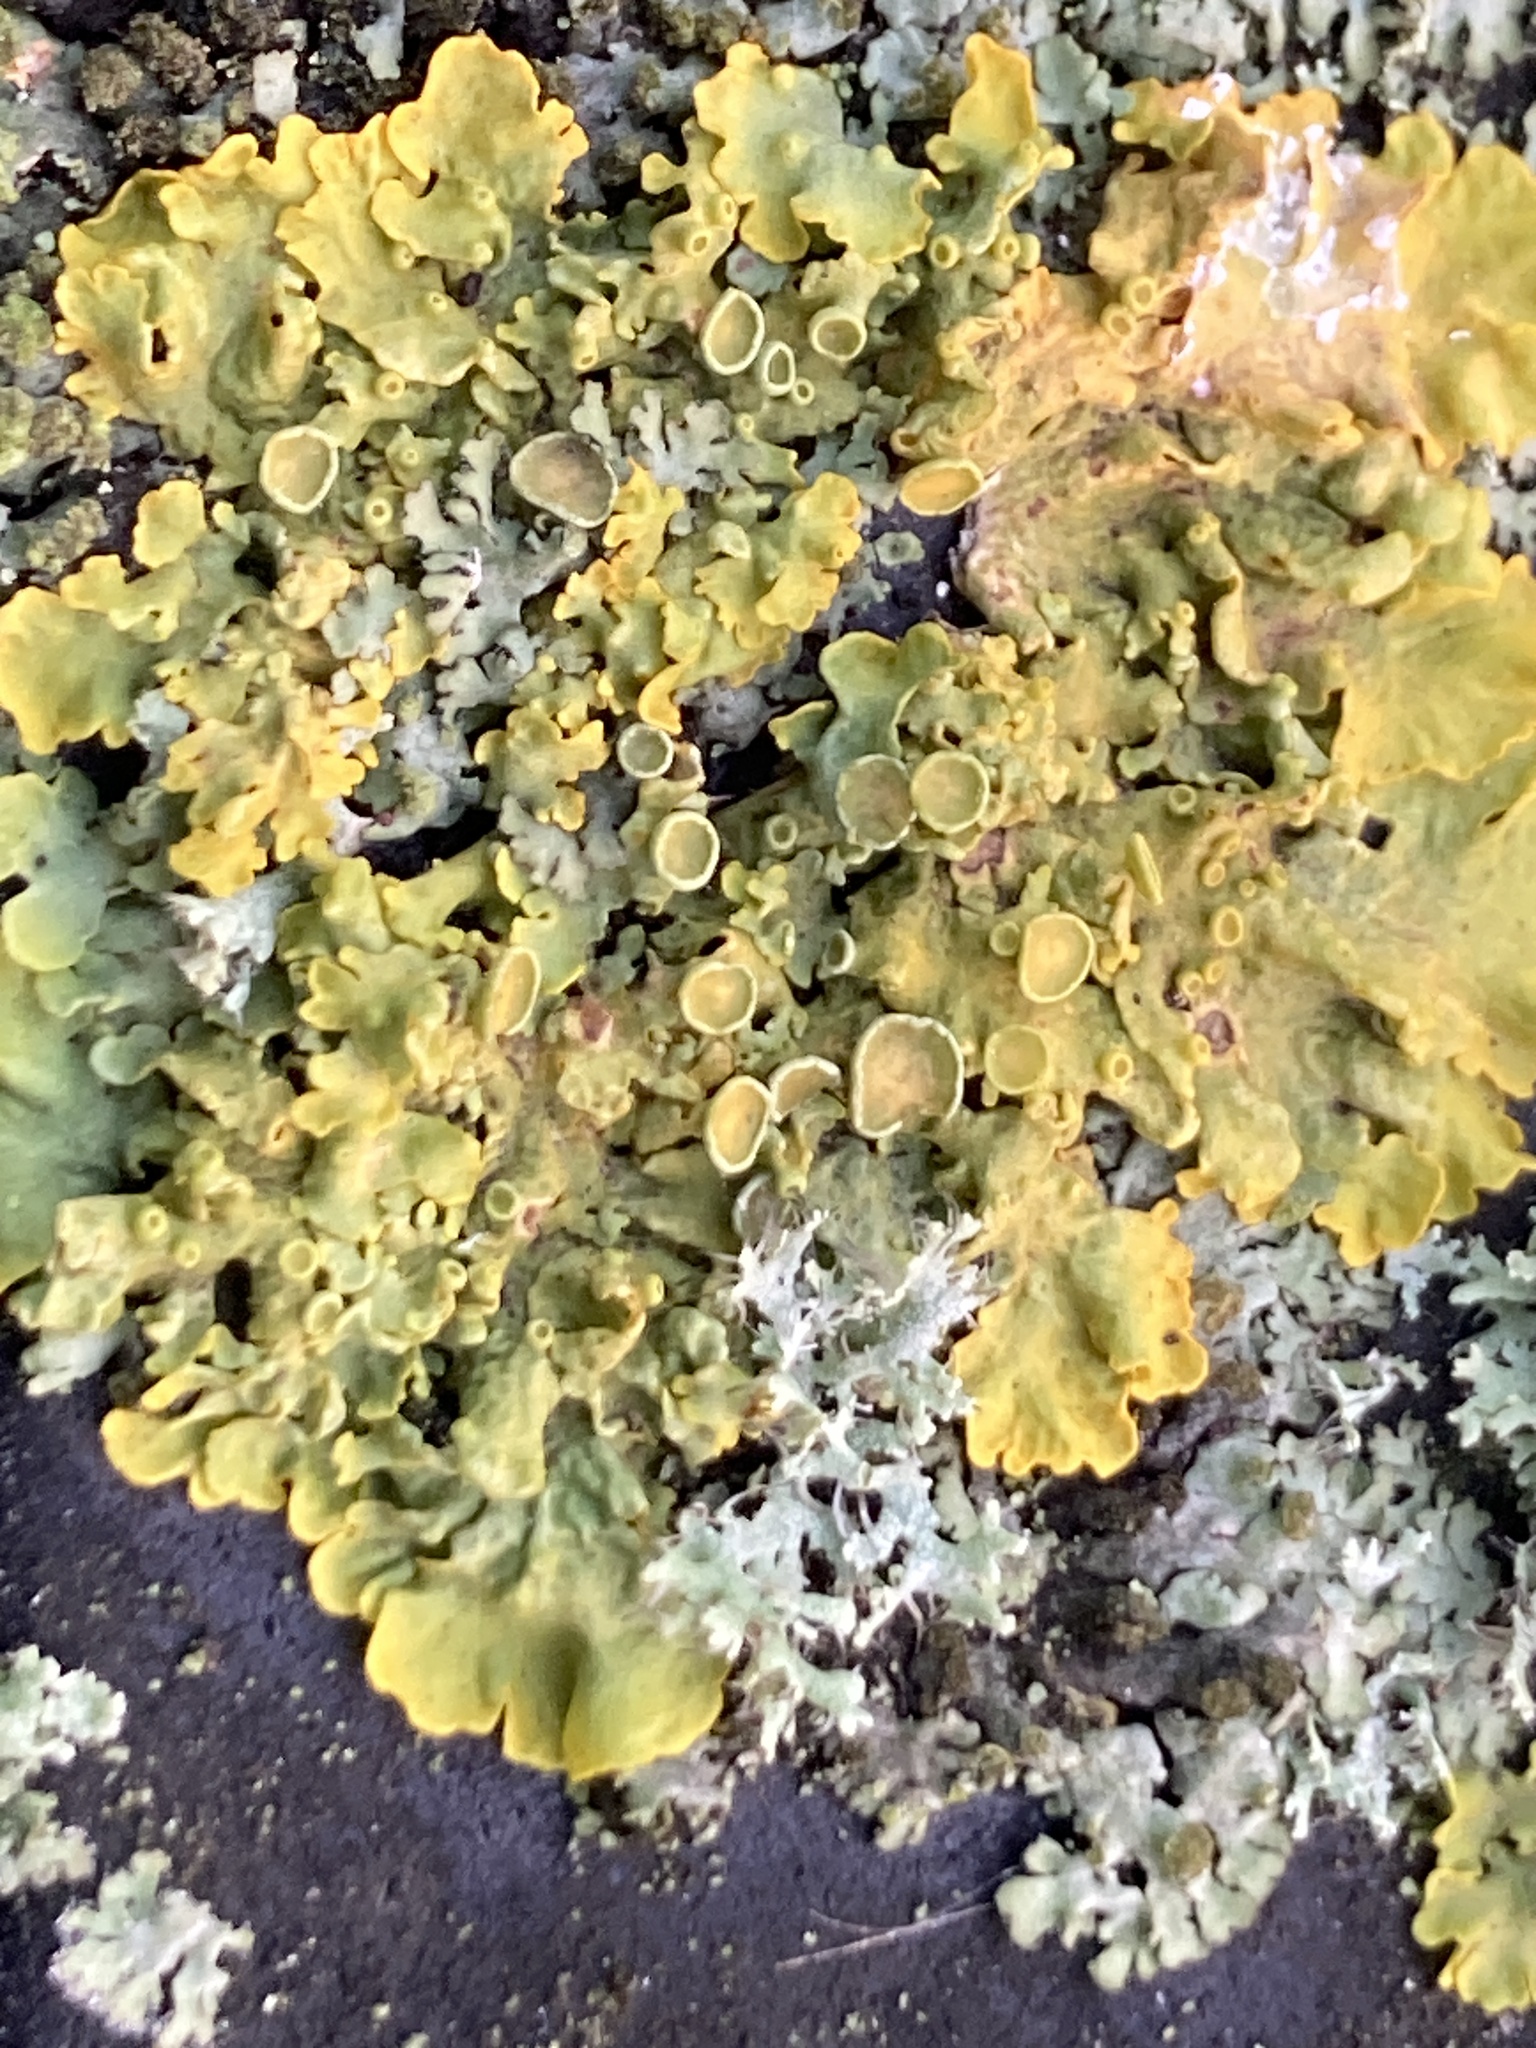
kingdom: Fungi
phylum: Ascomycota
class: Lecanoromycetes
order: Teloschistales
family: Teloschistaceae
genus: Xanthoria
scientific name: Xanthoria parietina
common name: Common orange lichen
